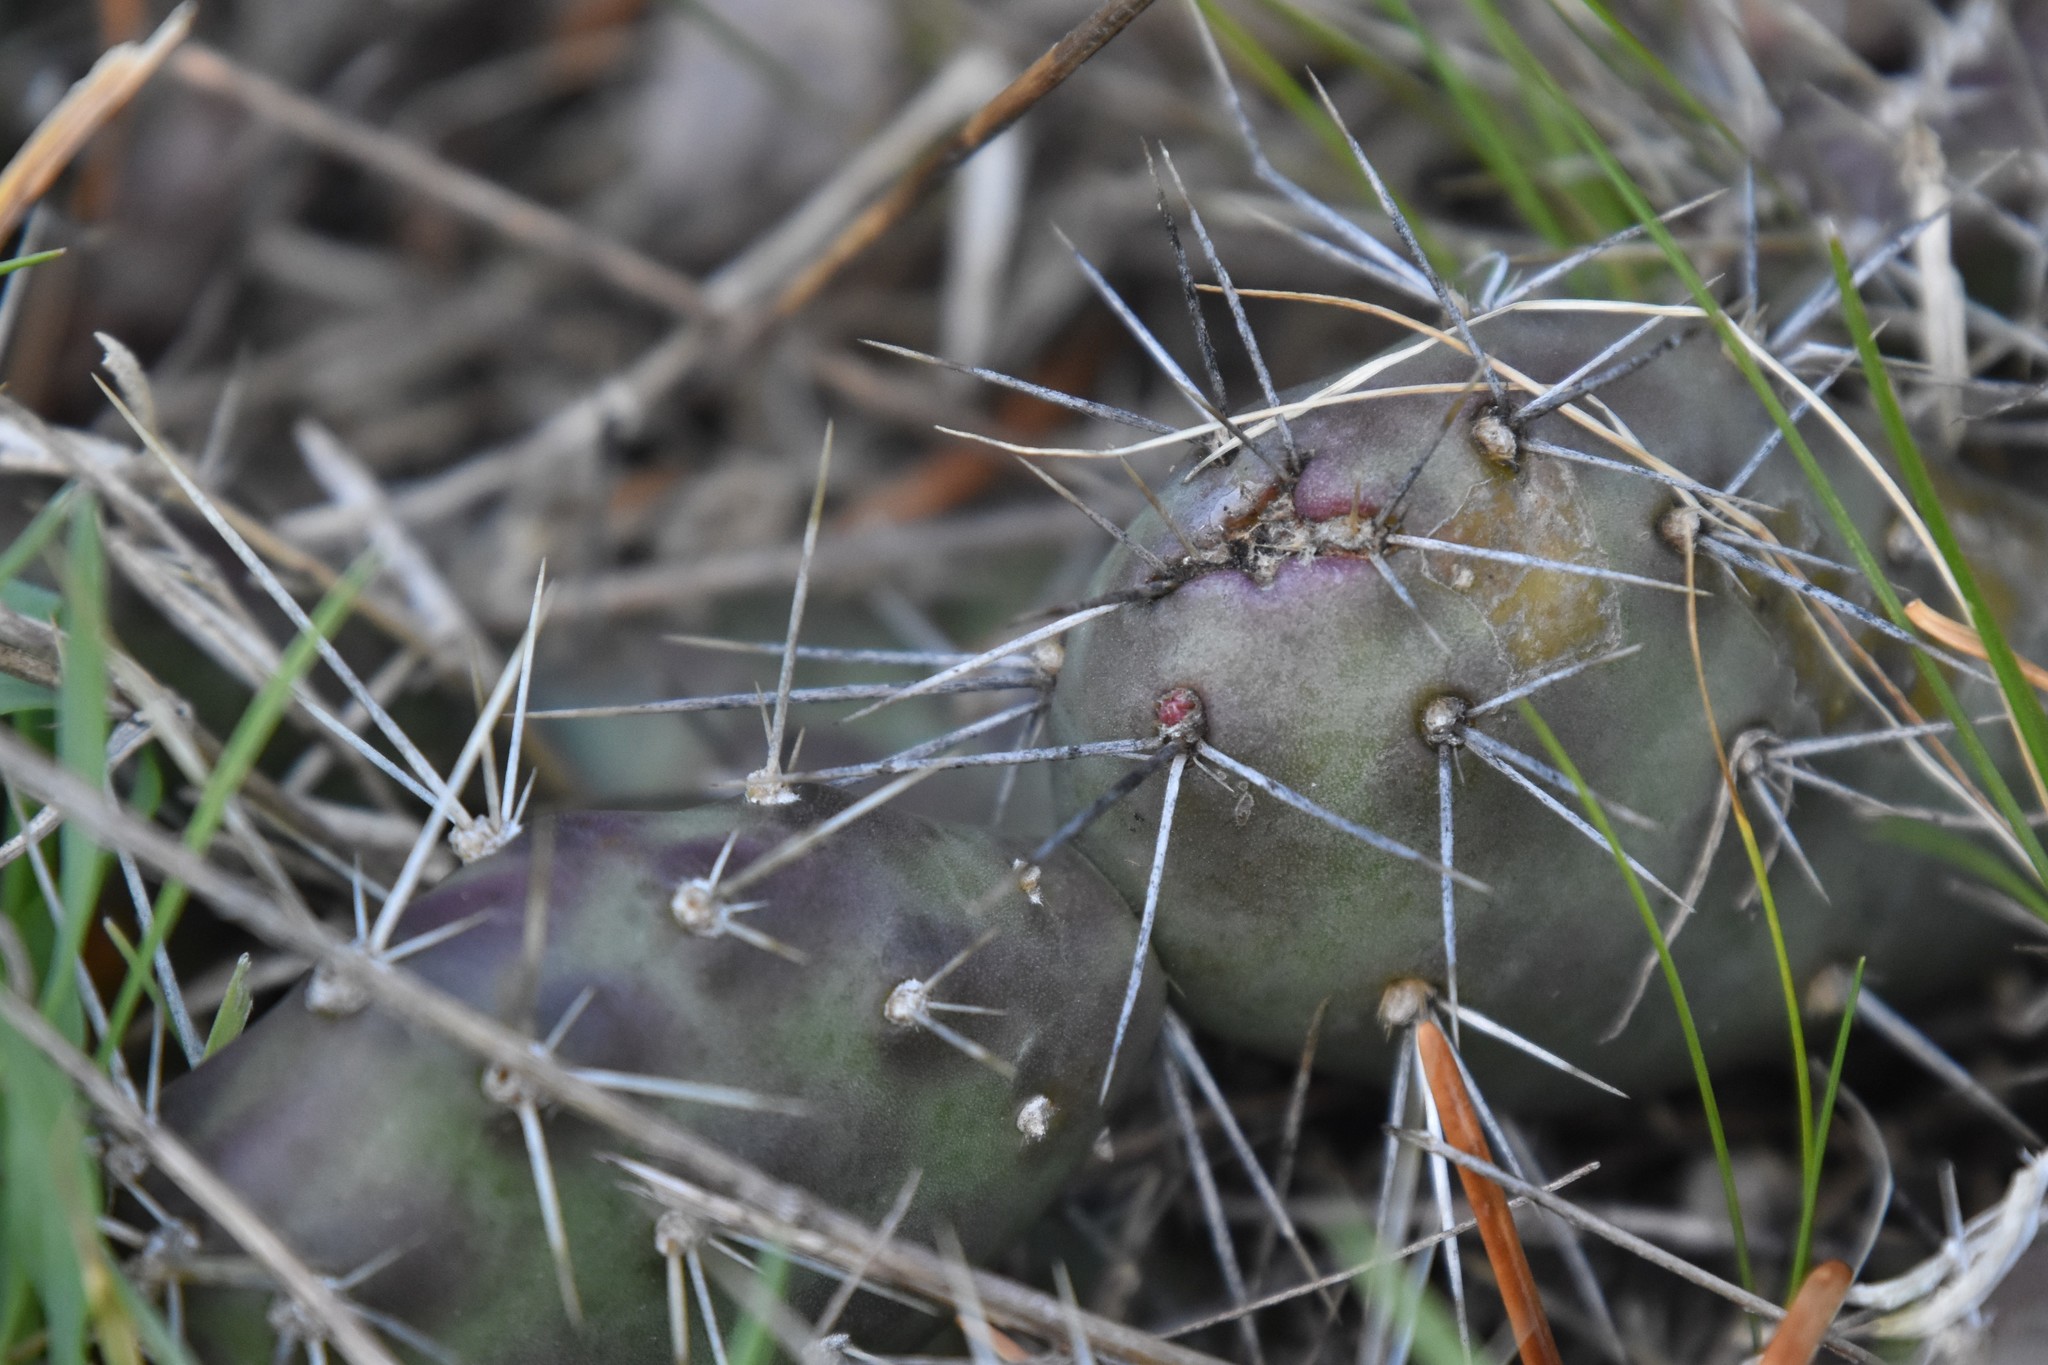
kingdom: Plantae
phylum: Tracheophyta
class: Magnoliopsida
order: Caryophyllales
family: Cactaceae
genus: Opuntia
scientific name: Opuntia fragilis
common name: Brittle cactus
